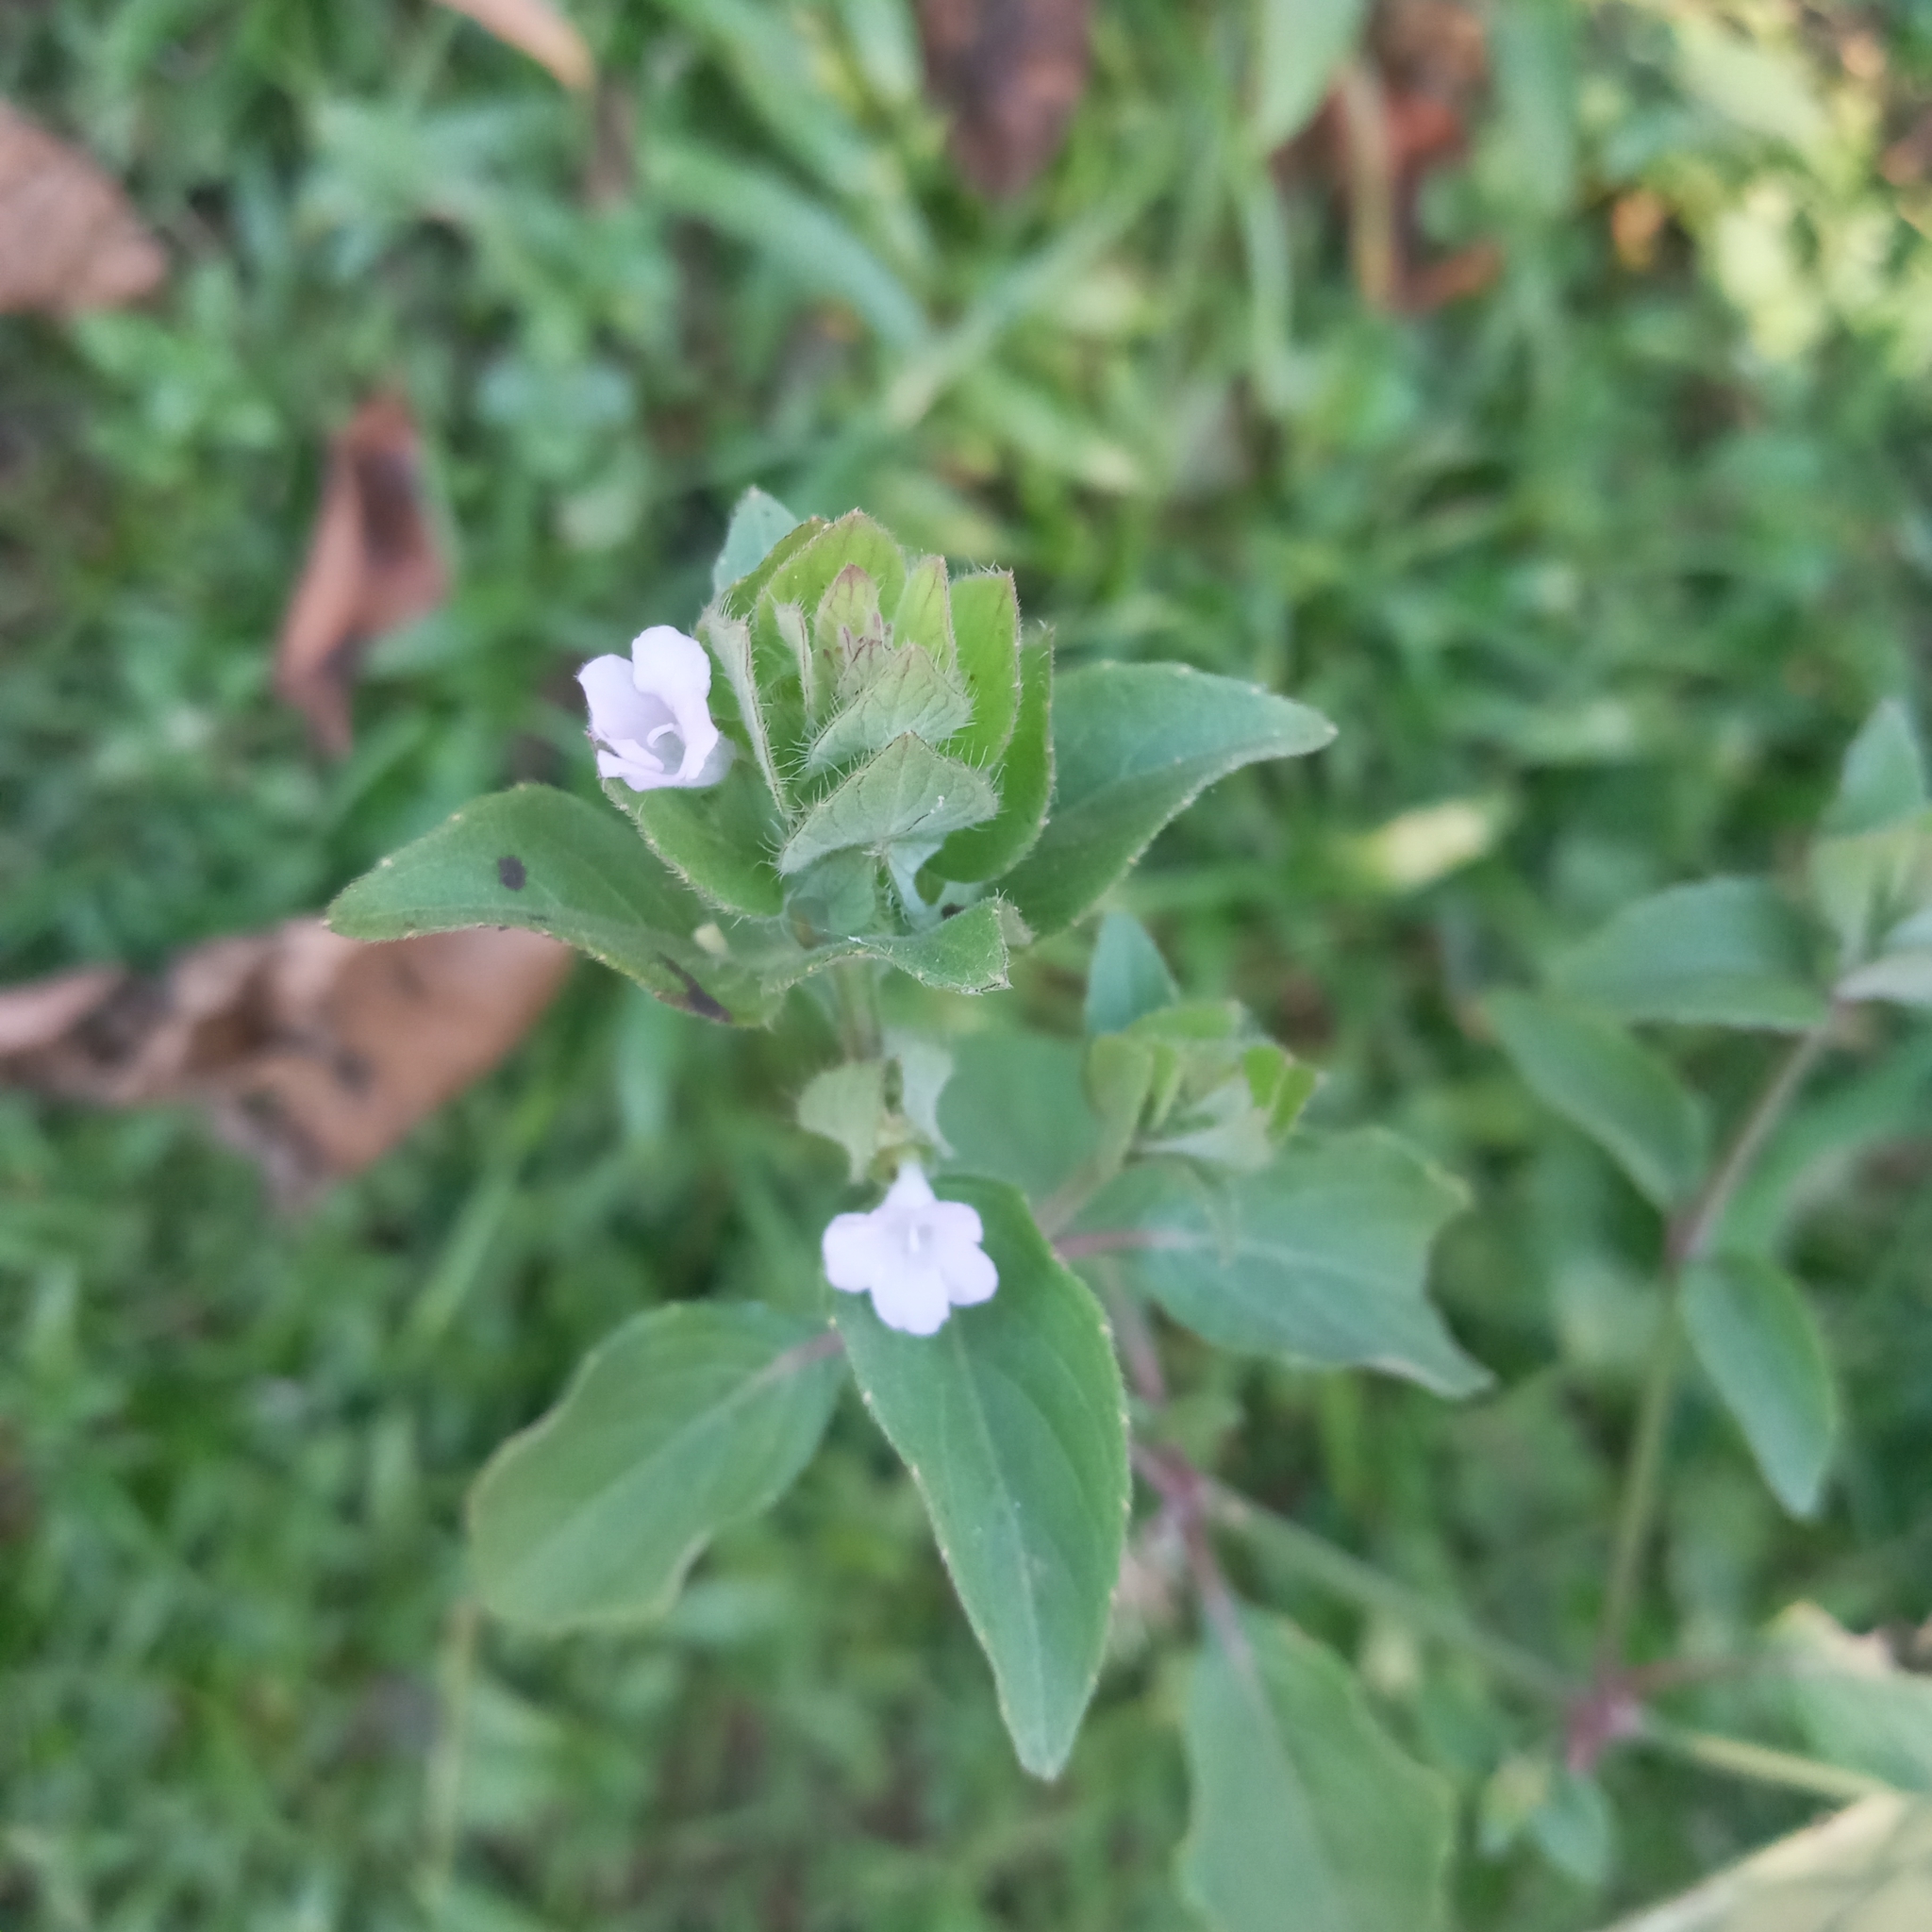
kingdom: Plantae
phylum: Tracheophyta
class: Magnoliopsida
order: Lamiales
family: Acanthaceae
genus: Ruellia
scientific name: Ruellia blechum
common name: Browne's blechum
